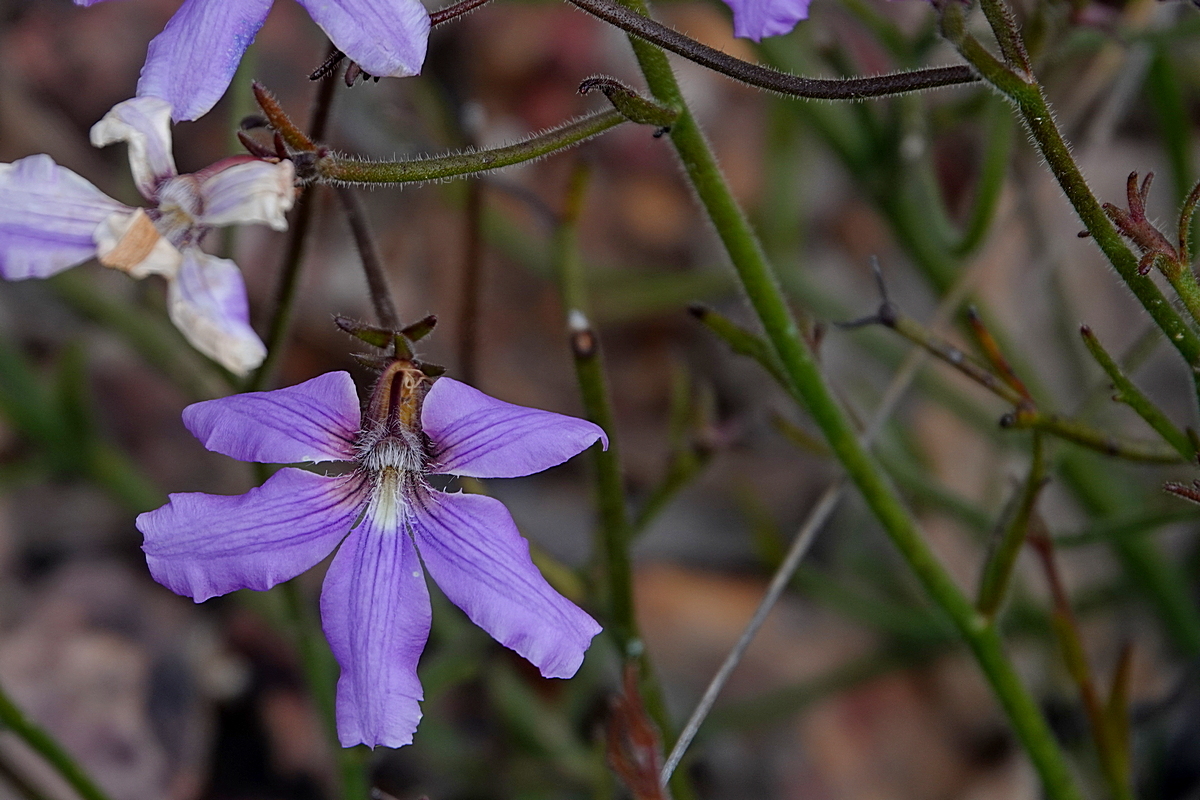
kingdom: Plantae
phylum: Tracheophyta
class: Magnoliopsida
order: Asterales
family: Goodeniaceae
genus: Scaevola
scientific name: Scaevola ramosissima
